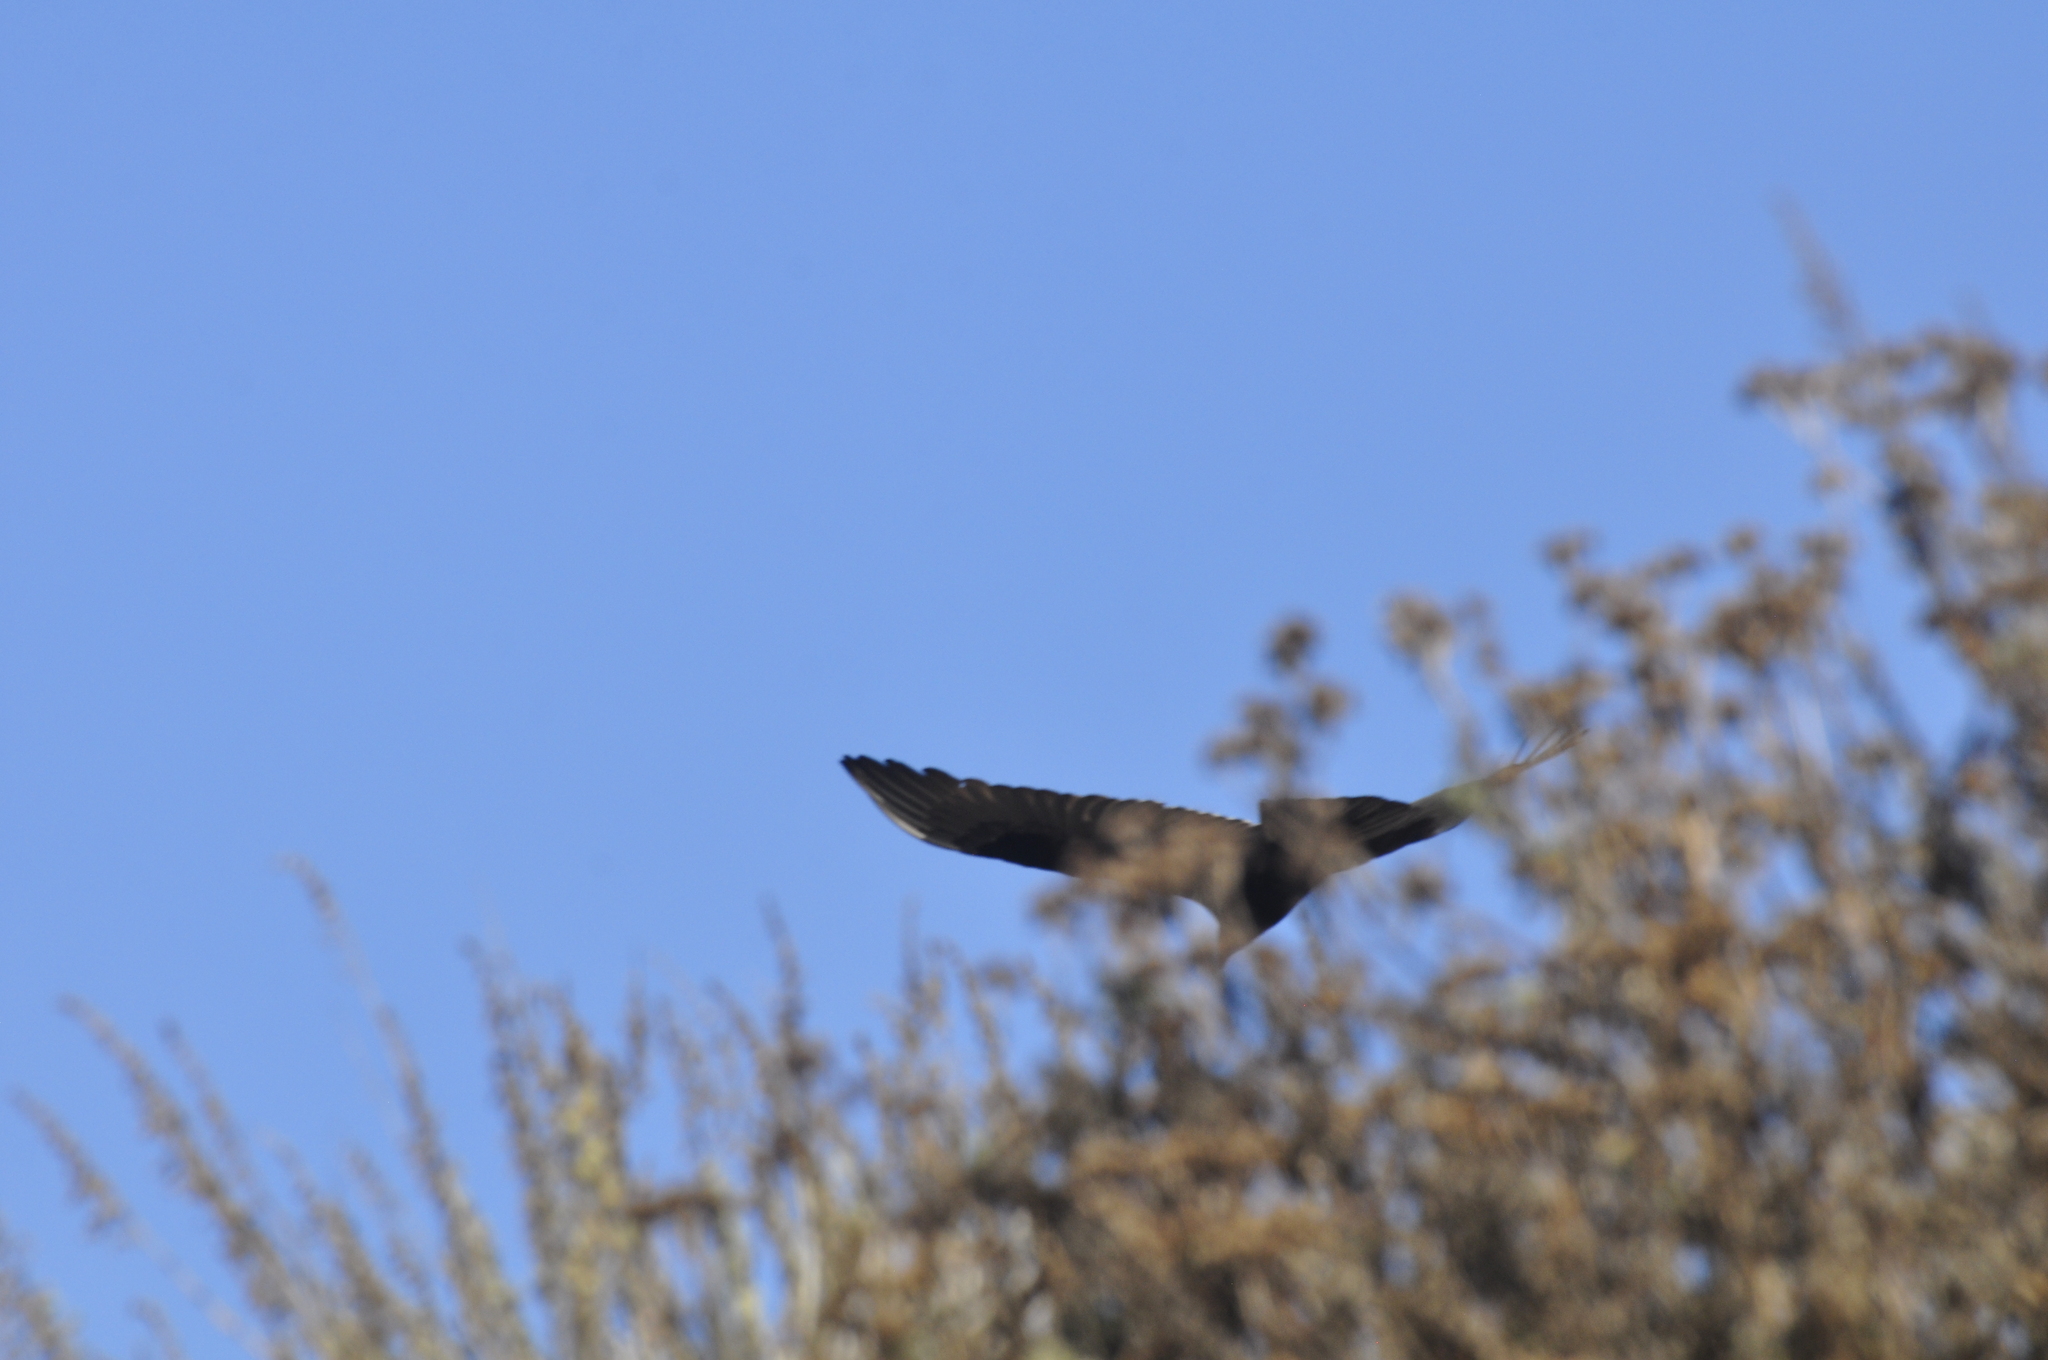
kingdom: Animalia
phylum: Chordata
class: Aves
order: Accipitriformes
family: Cathartidae
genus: Cathartes
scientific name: Cathartes aura
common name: Turkey vulture
